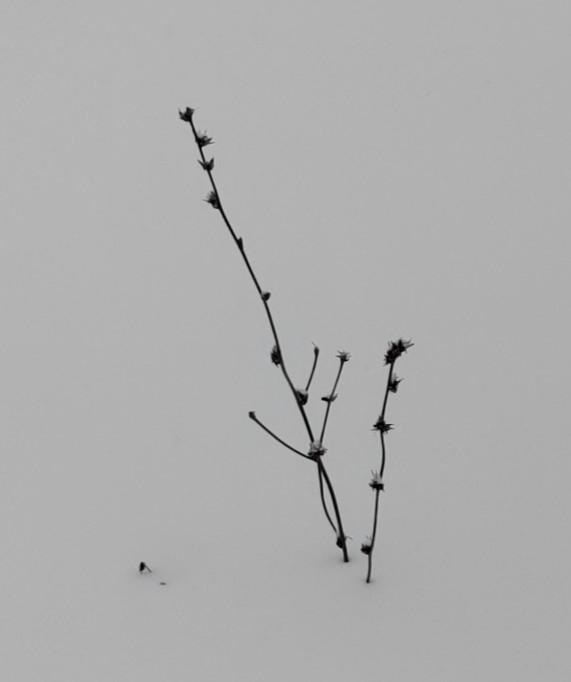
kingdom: Plantae
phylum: Tracheophyta
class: Magnoliopsida
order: Asterales
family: Asteraceae
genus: Cichorium
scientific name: Cichorium intybus
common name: Chicory
